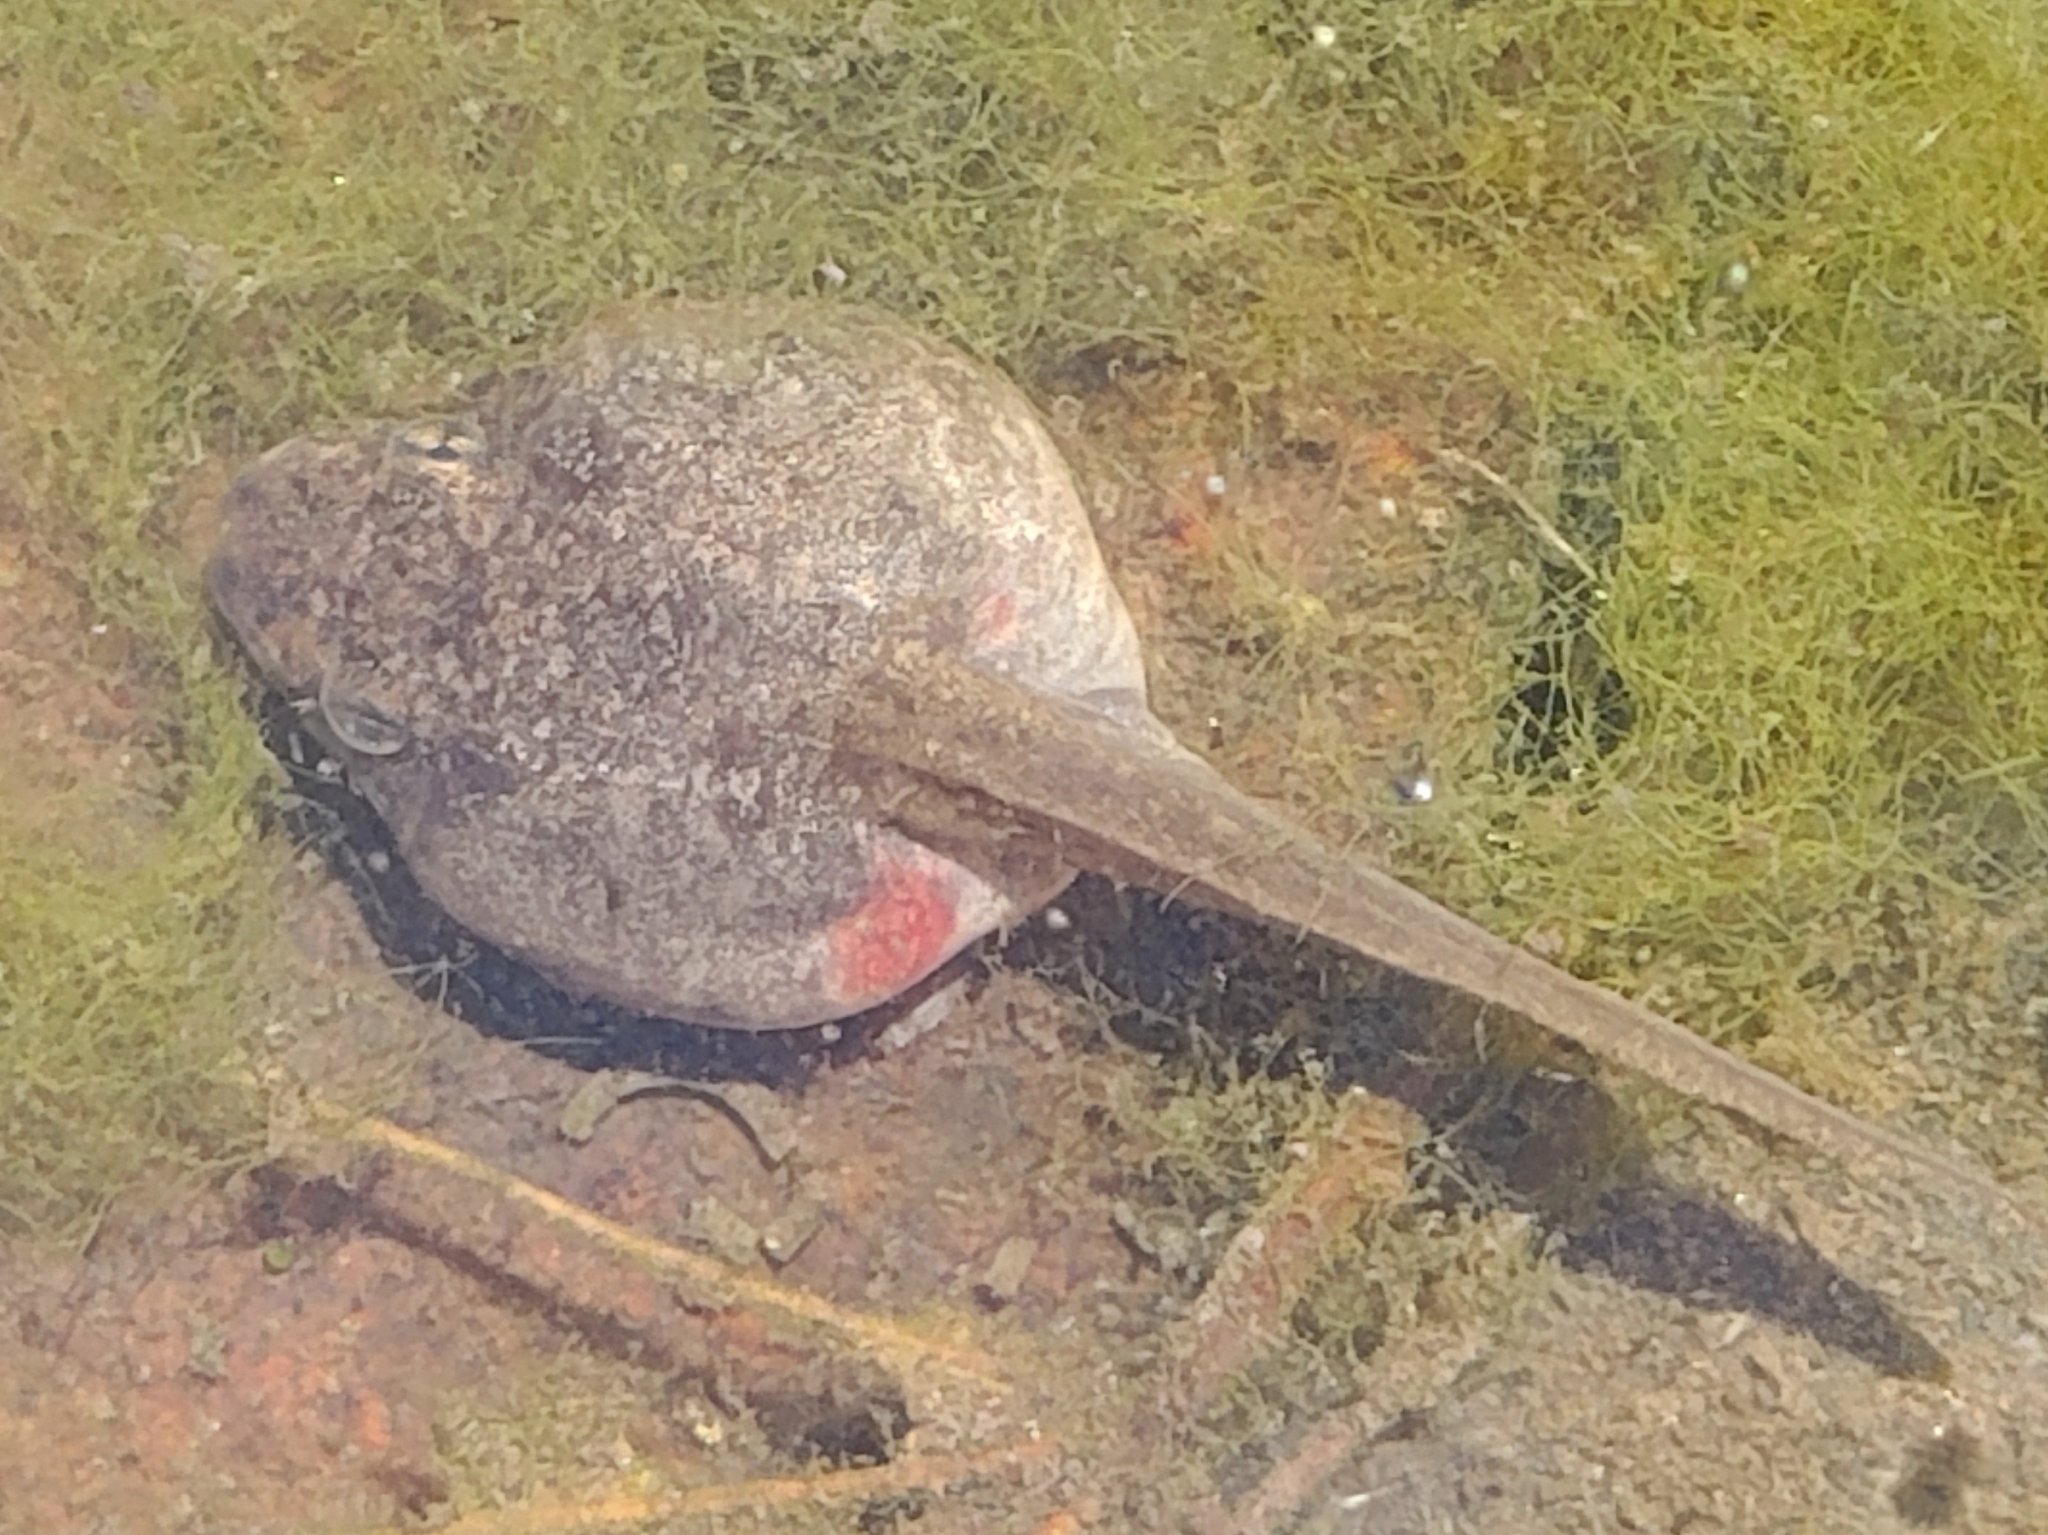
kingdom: Animalia
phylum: Chordata
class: Amphibia
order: Anura
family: Ranidae
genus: Lithobates
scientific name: Lithobates clamitans
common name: Green frog
